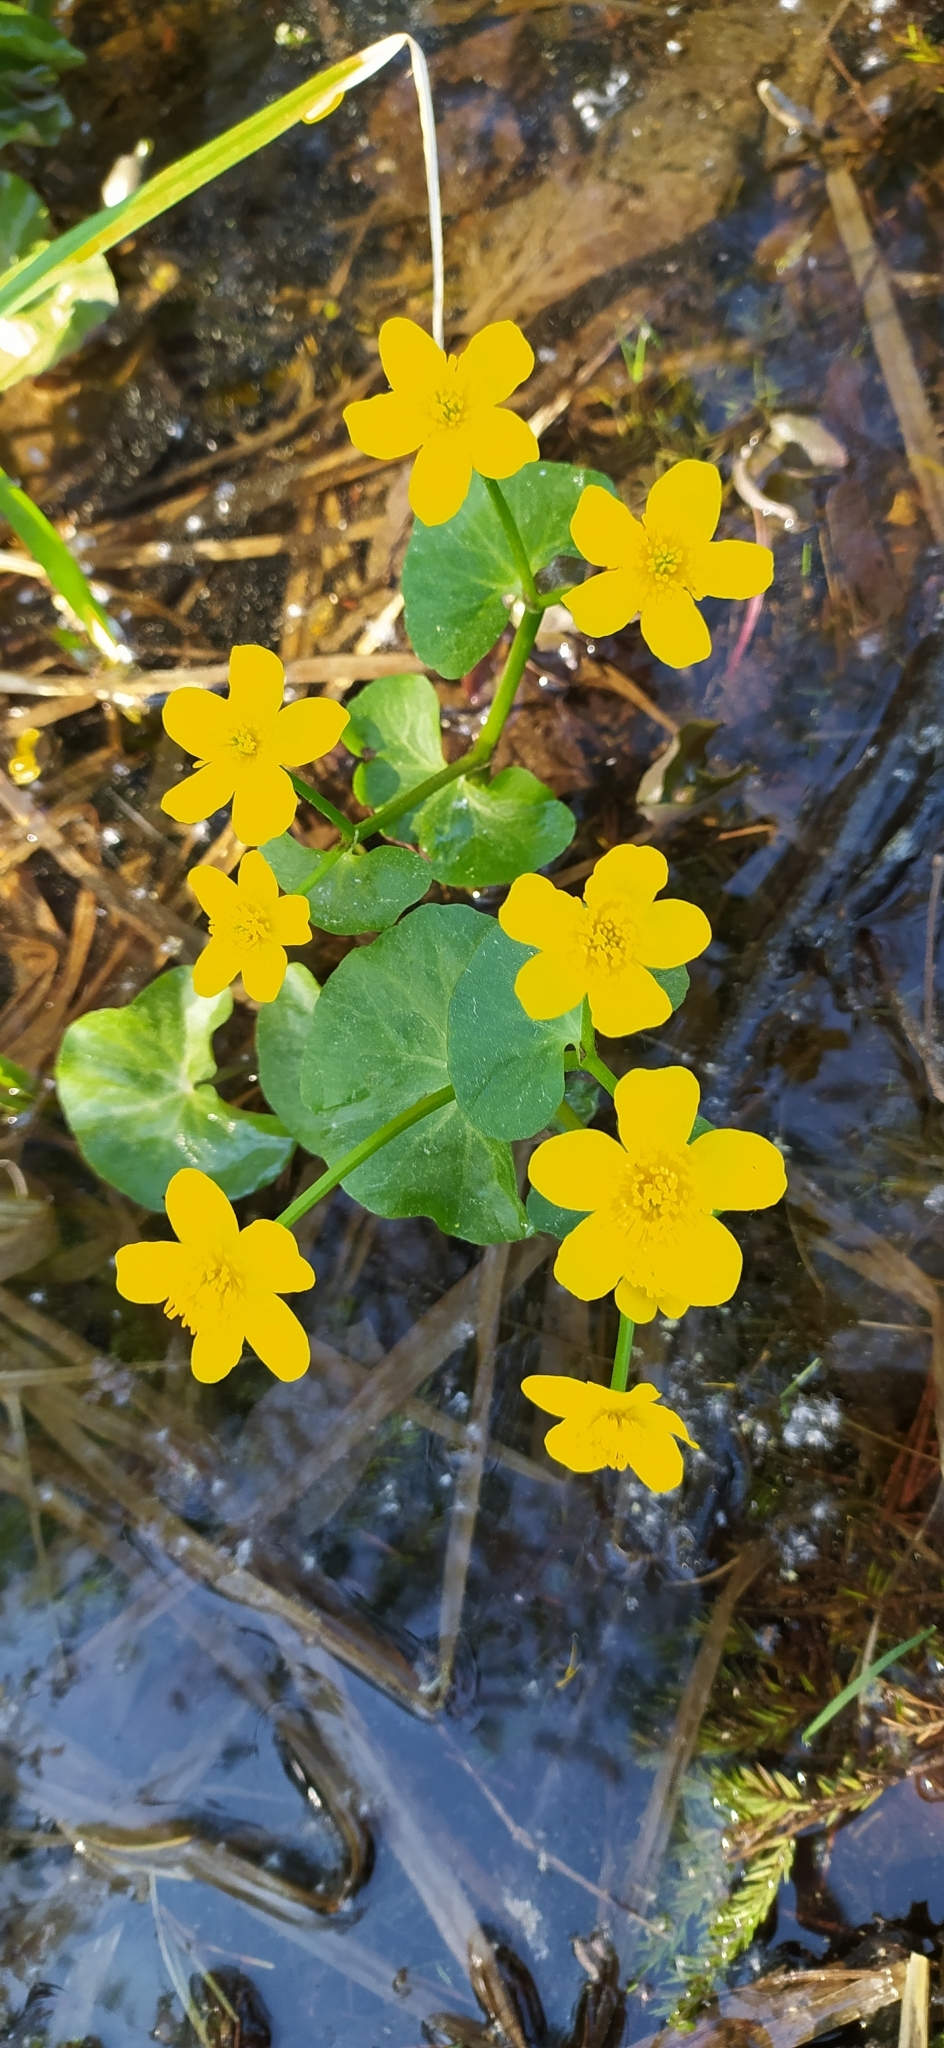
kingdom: Plantae
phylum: Tracheophyta
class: Magnoliopsida
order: Ranunculales
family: Ranunculaceae
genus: Caltha
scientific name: Caltha palustris
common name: Marsh marigold
